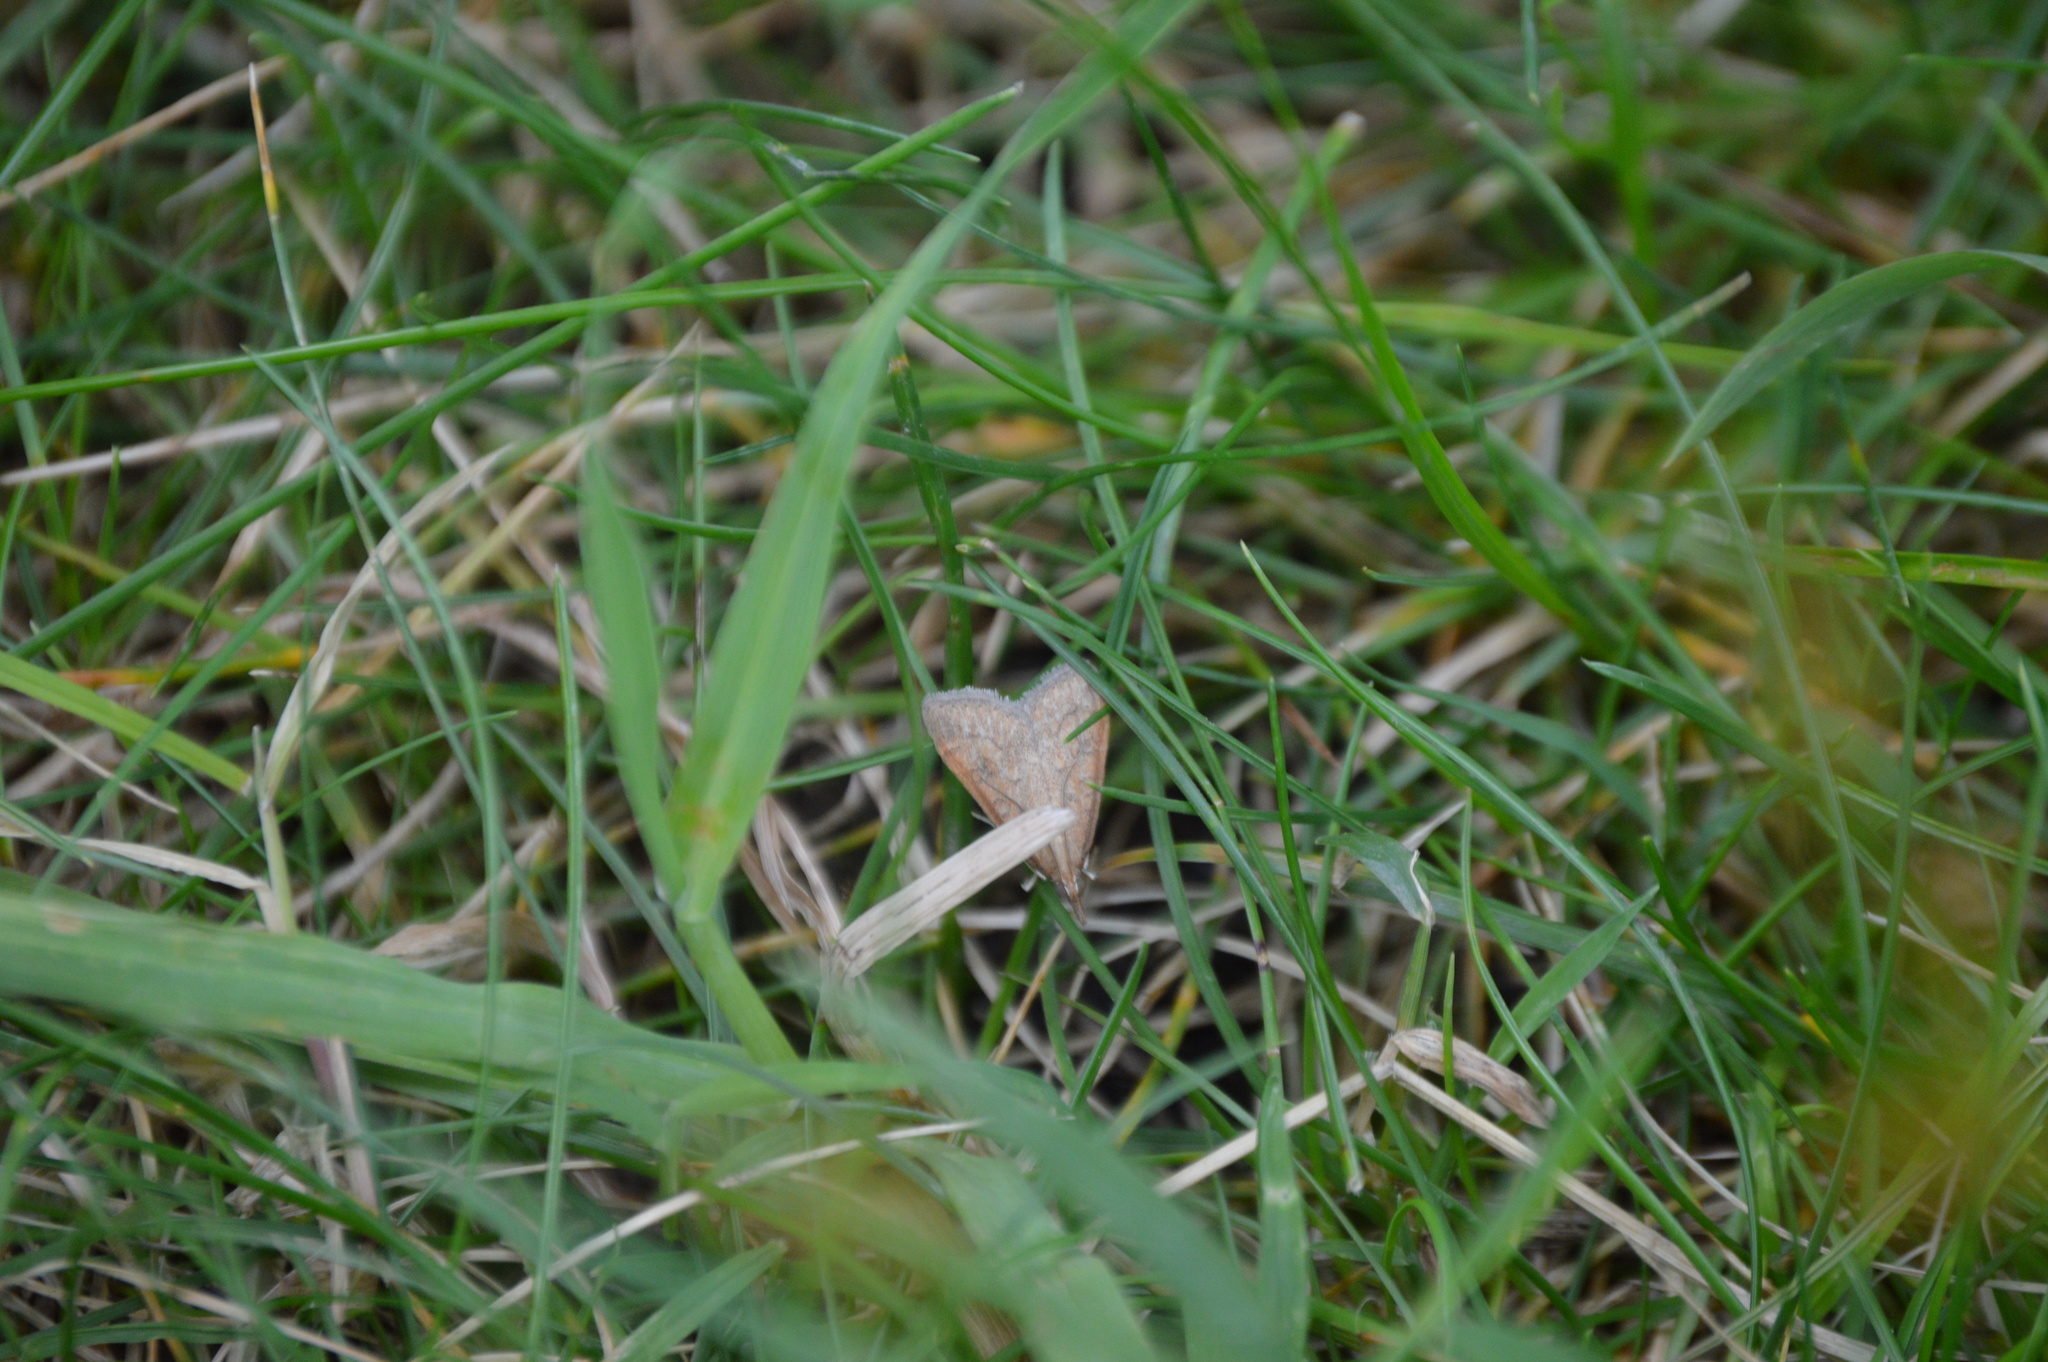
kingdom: Animalia
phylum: Arthropoda
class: Insecta
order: Lepidoptera
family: Crambidae
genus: Udea
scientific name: Udea rubigalis
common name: Celery leaftier moth
